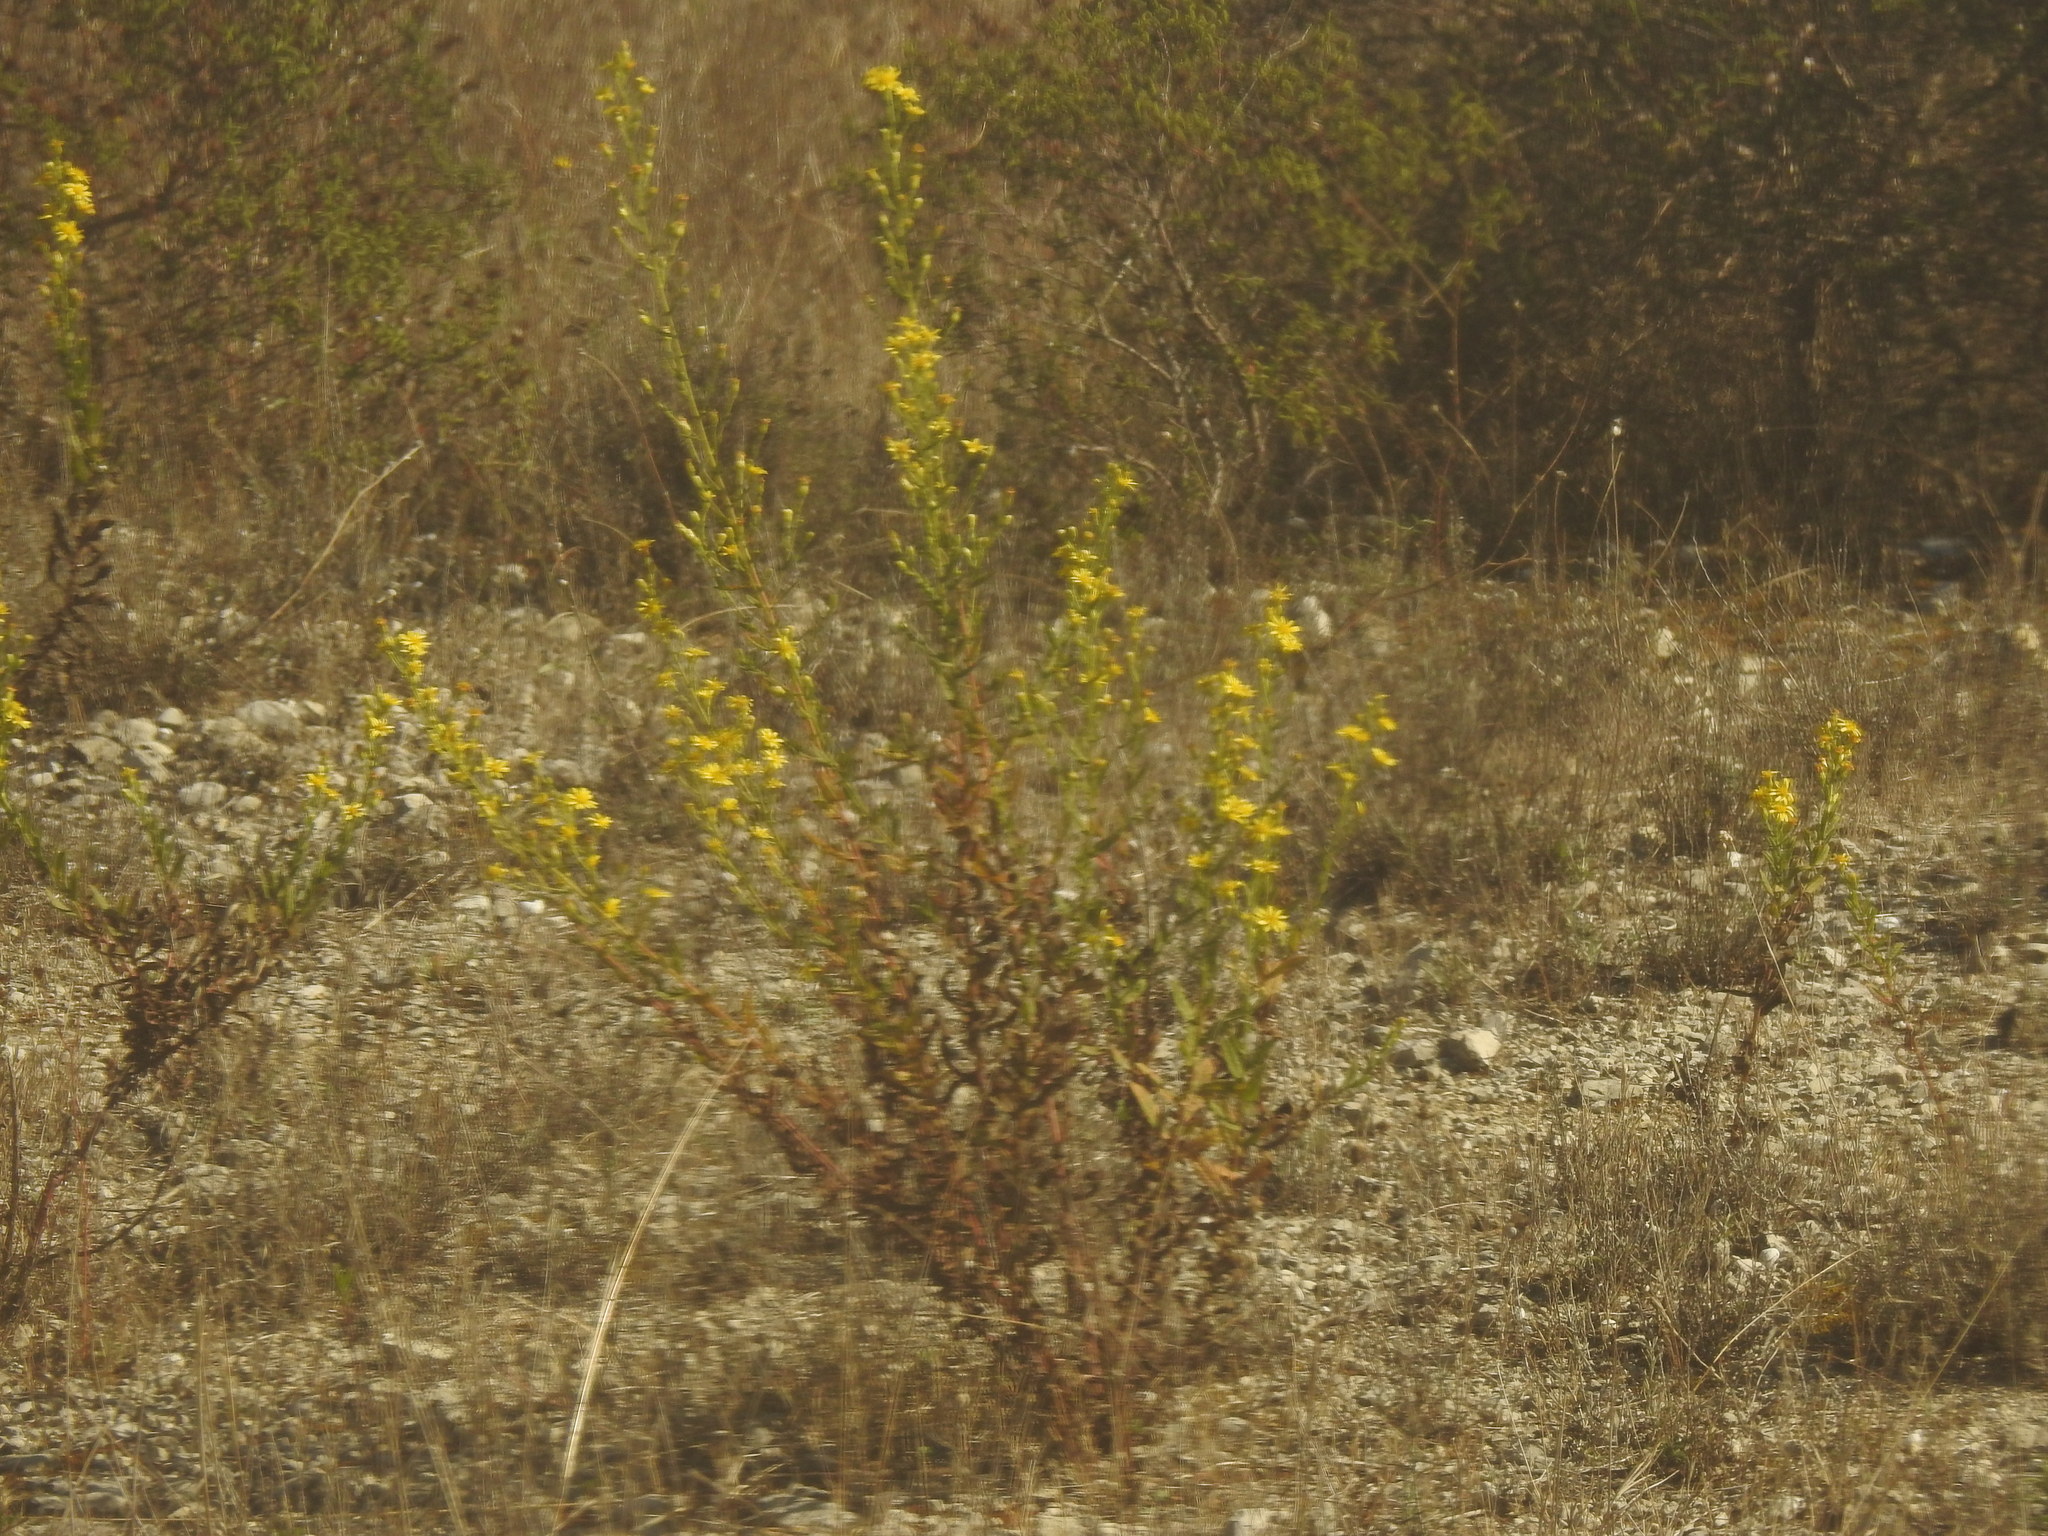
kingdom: Plantae
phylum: Tracheophyta
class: Magnoliopsida
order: Asterales
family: Asteraceae
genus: Dittrichia
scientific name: Dittrichia viscosa
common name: Woody fleabane
